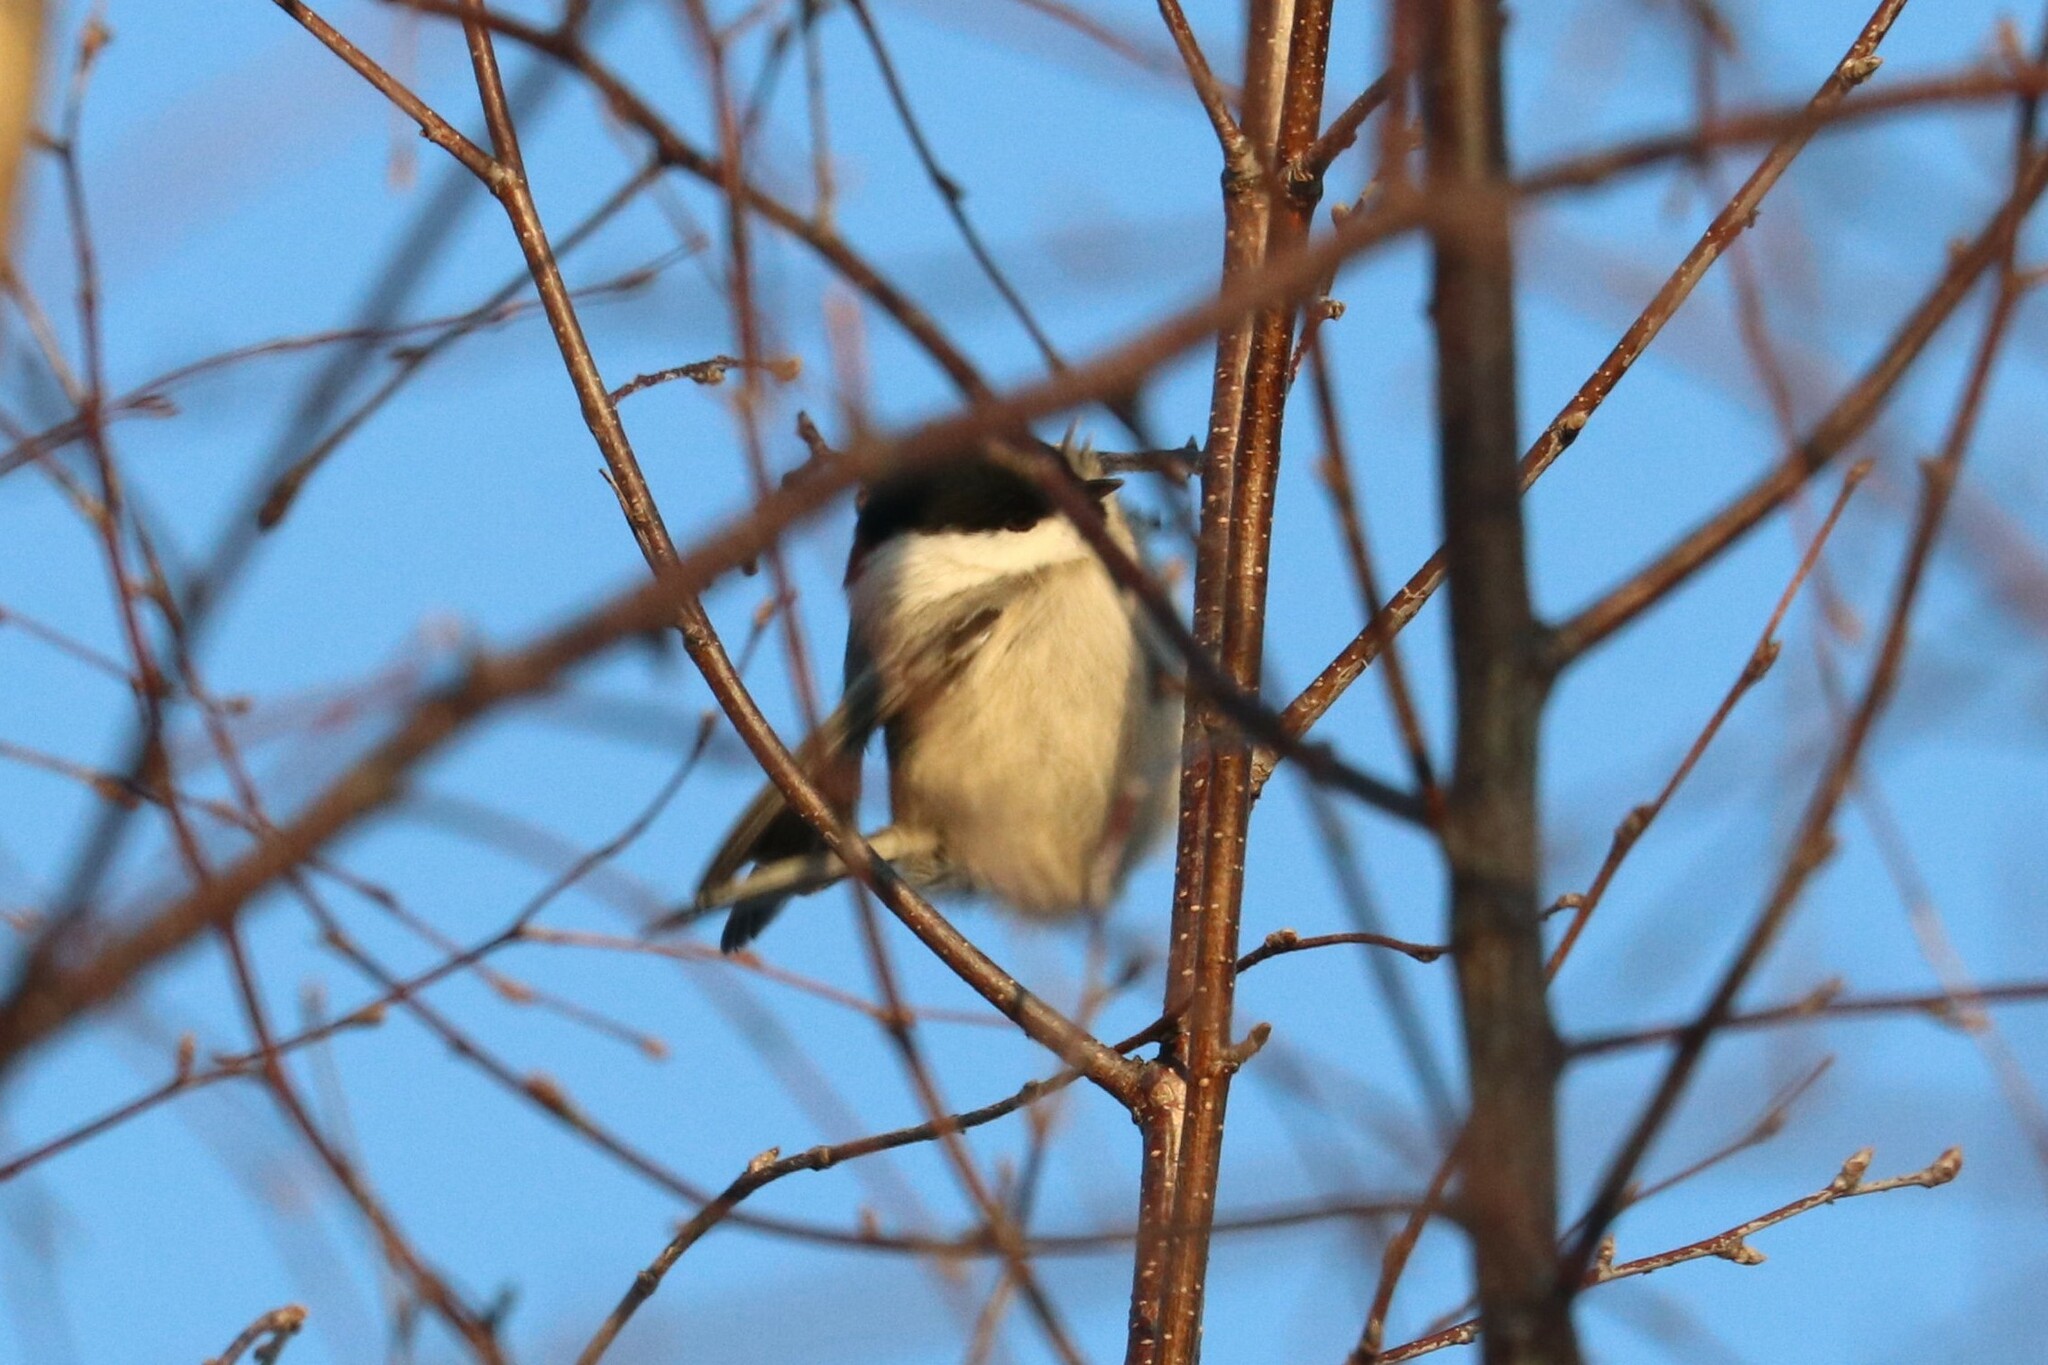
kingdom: Animalia
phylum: Chordata
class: Aves
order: Passeriformes
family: Paridae
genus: Poecile
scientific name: Poecile montanus
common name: Willow tit
